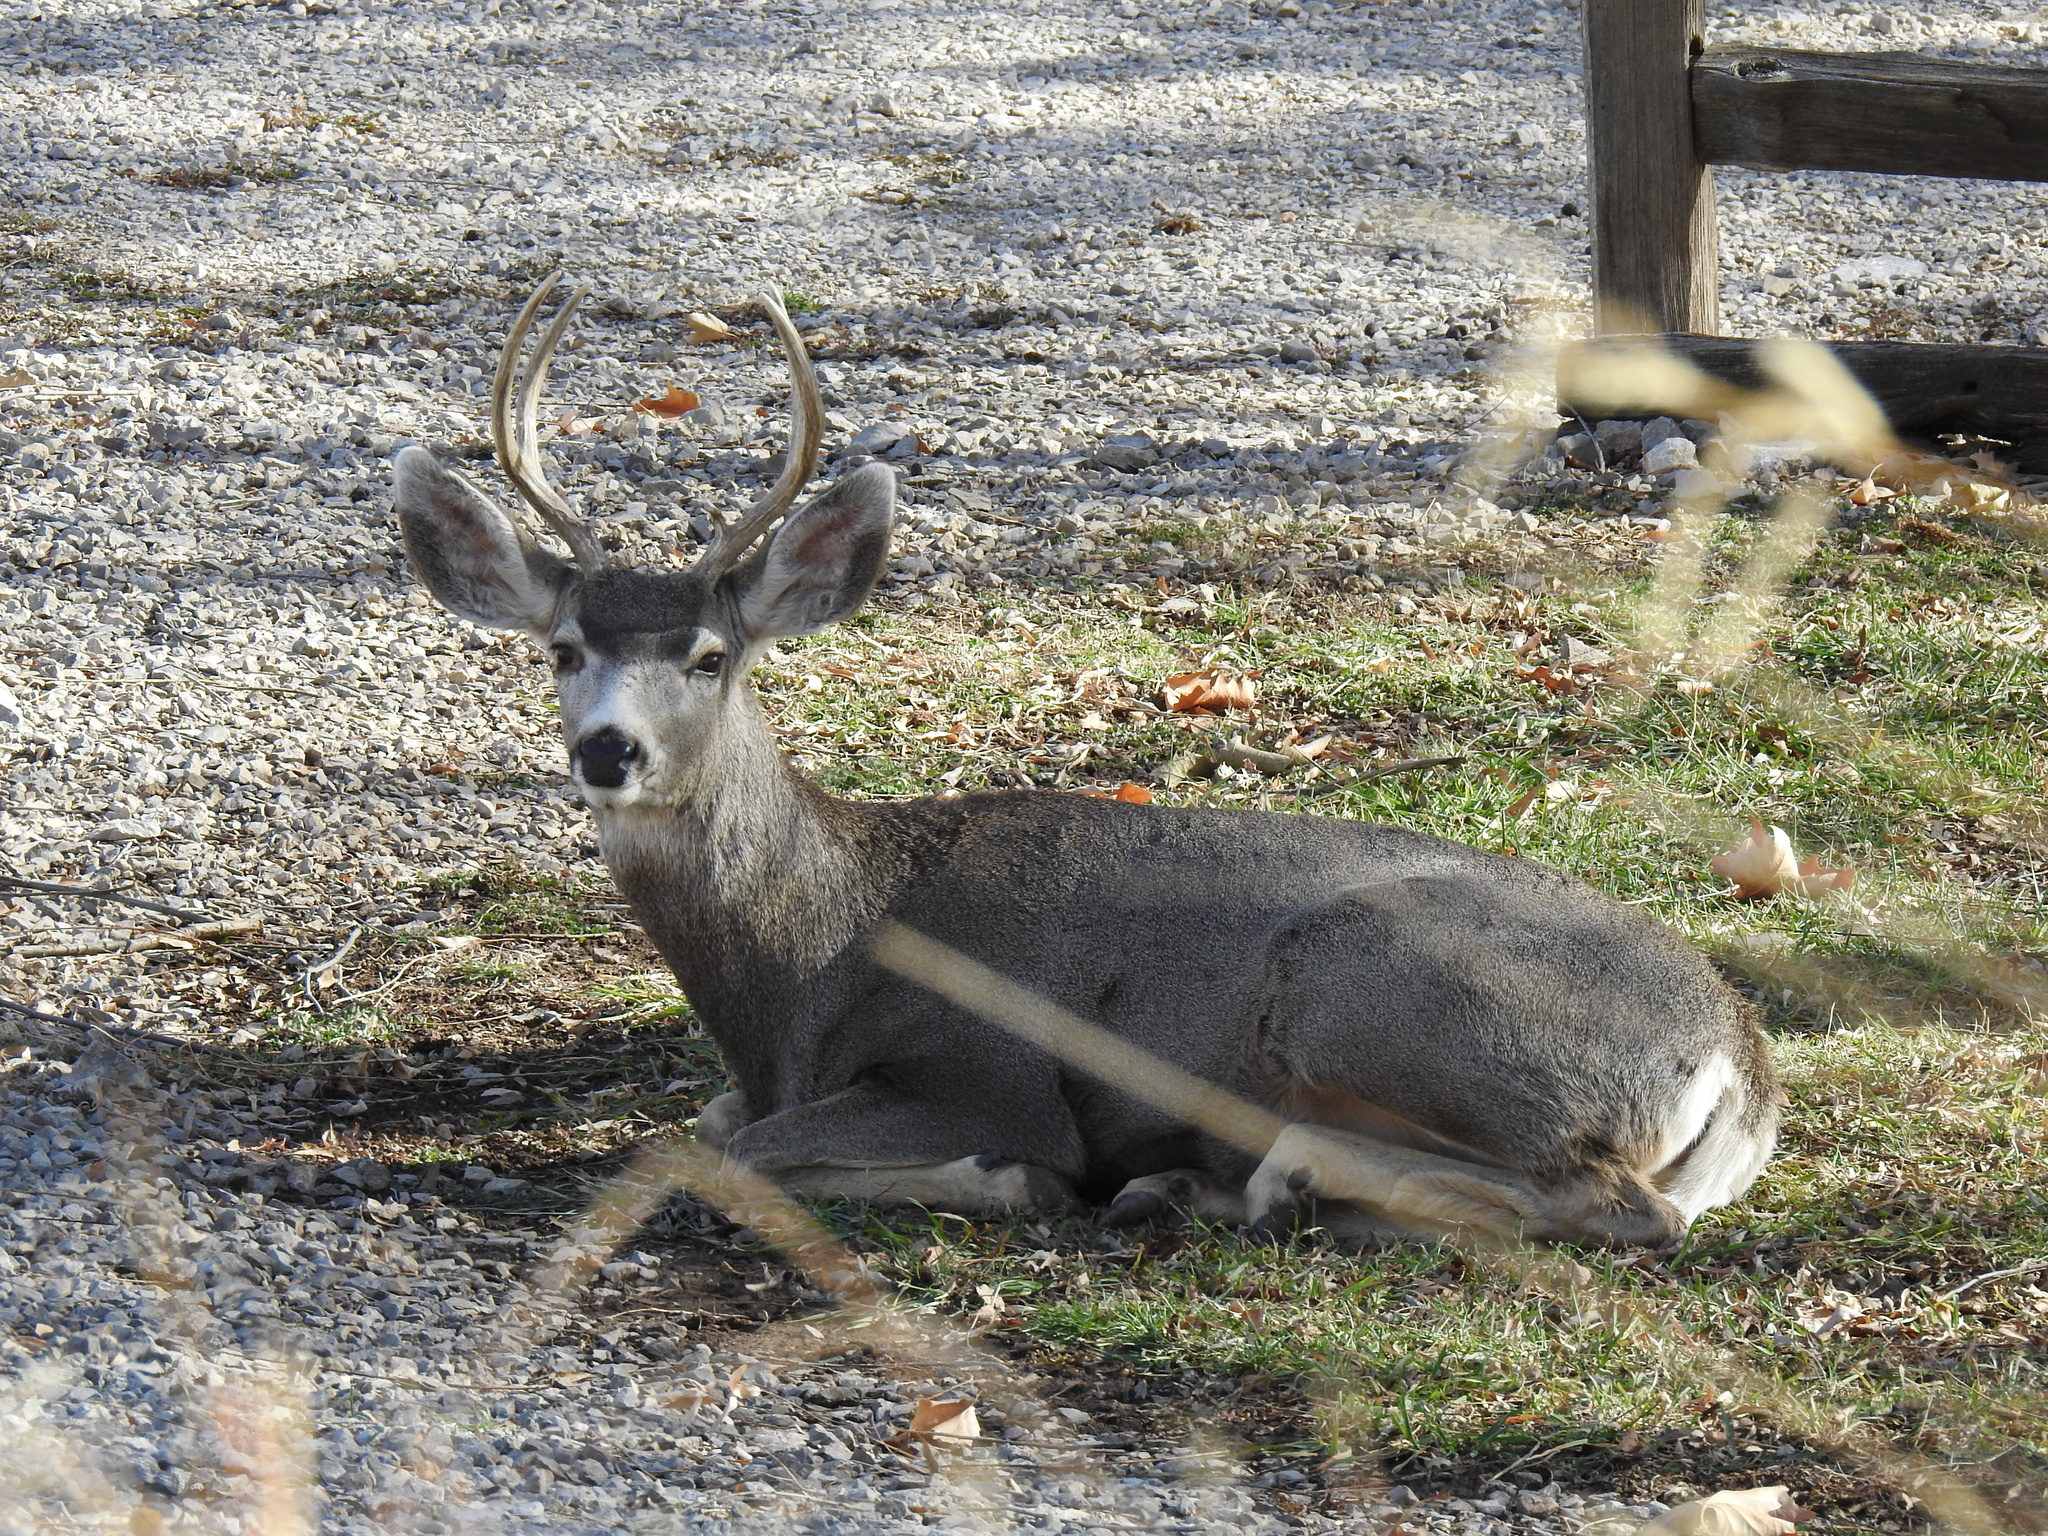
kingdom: Animalia
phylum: Chordata
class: Mammalia
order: Artiodactyla
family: Cervidae
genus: Odocoileus
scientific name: Odocoileus hemionus
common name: Mule deer
